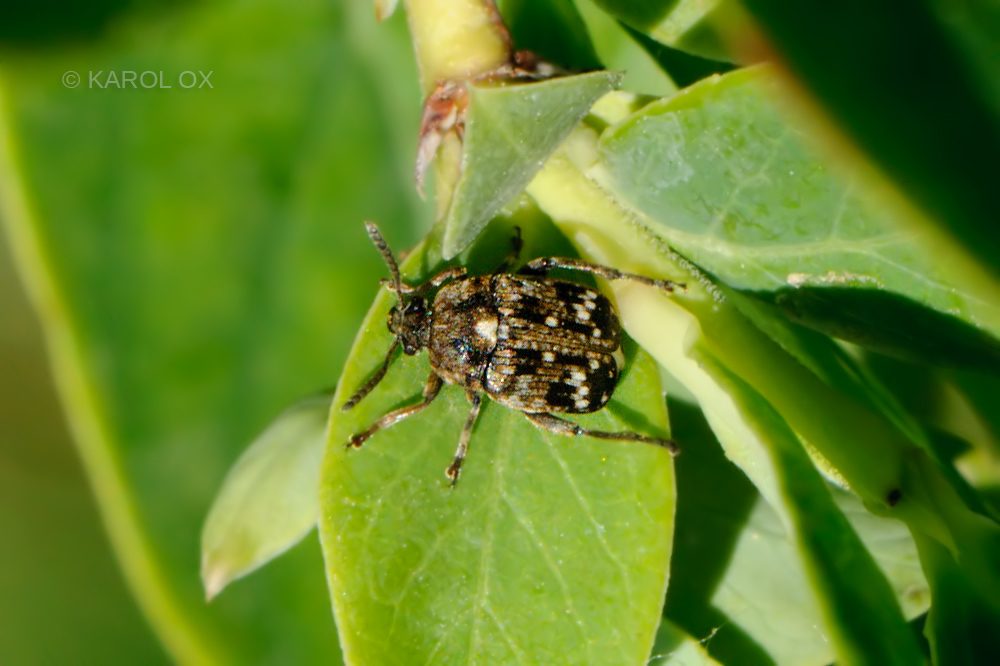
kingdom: Animalia
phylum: Arthropoda
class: Insecta
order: Coleoptera
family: Chrysomelidae
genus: Bruchus
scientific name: Bruchus pisorum
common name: Pea weevil
